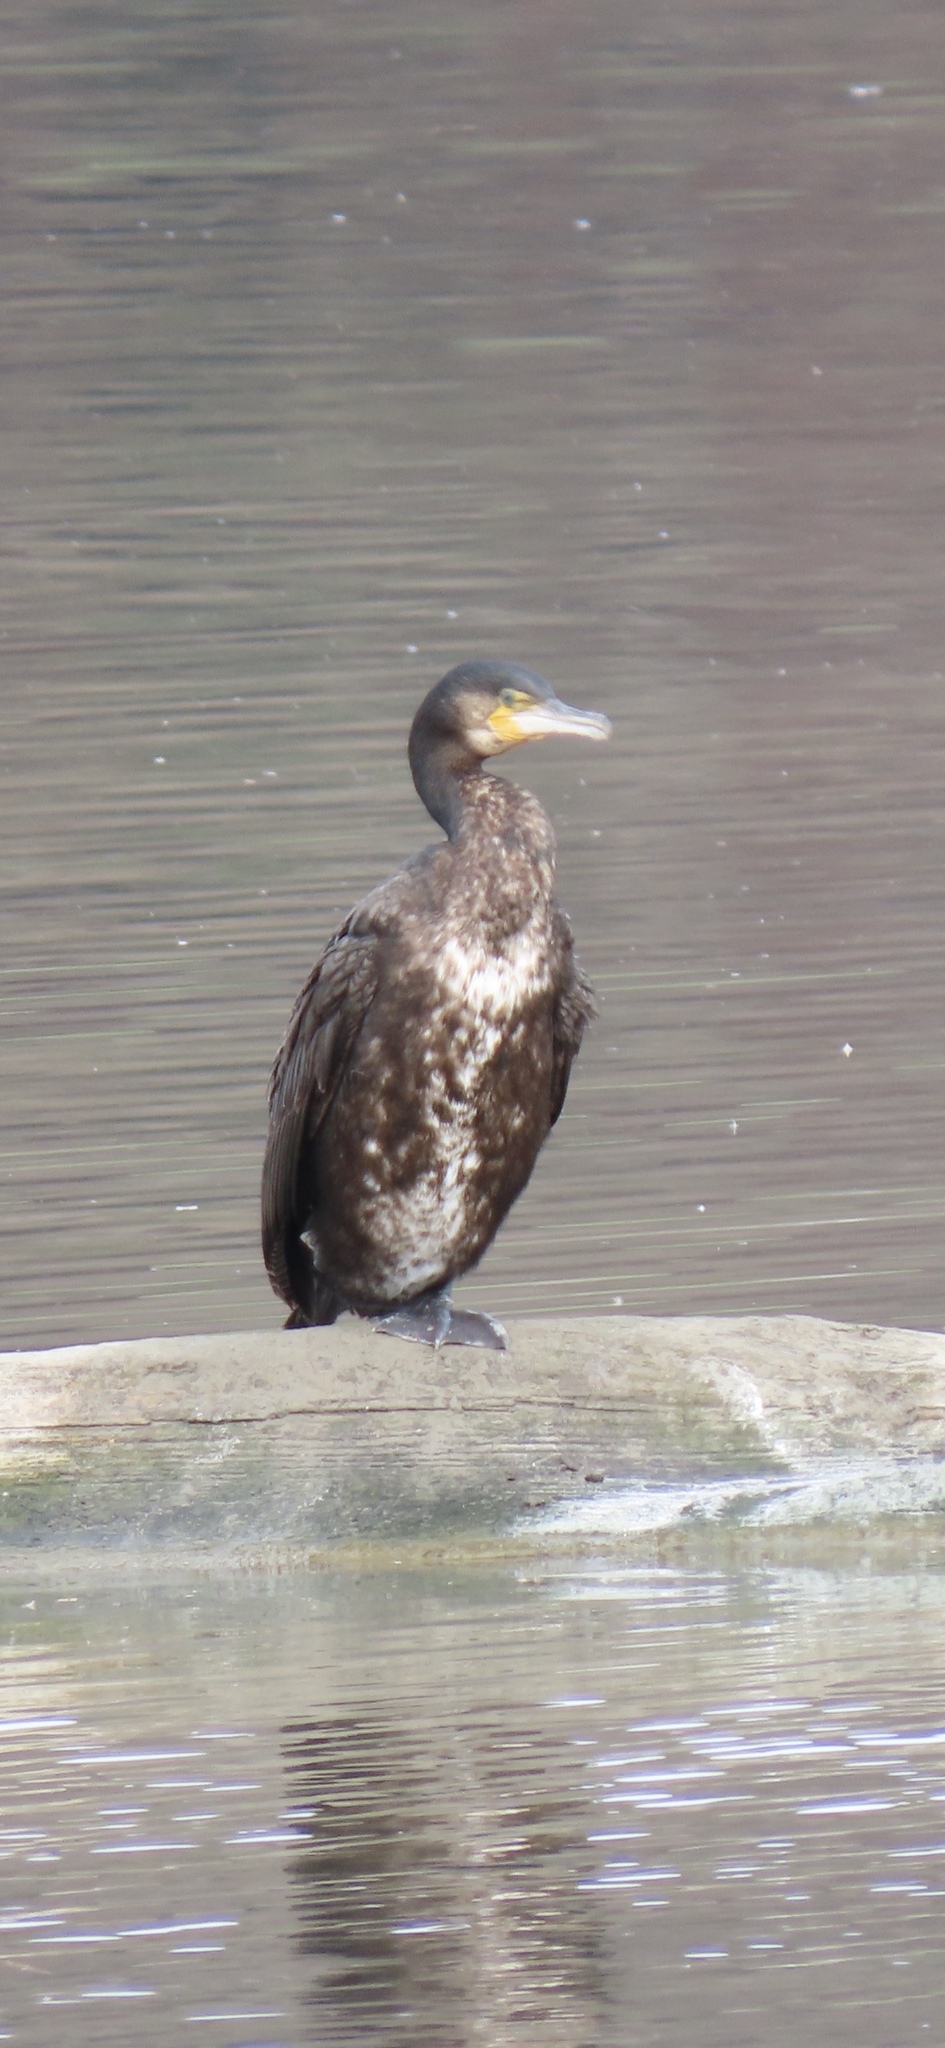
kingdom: Animalia
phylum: Chordata
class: Aves
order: Suliformes
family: Phalacrocoracidae
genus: Phalacrocorax
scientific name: Phalacrocorax carbo
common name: Great cormorant
